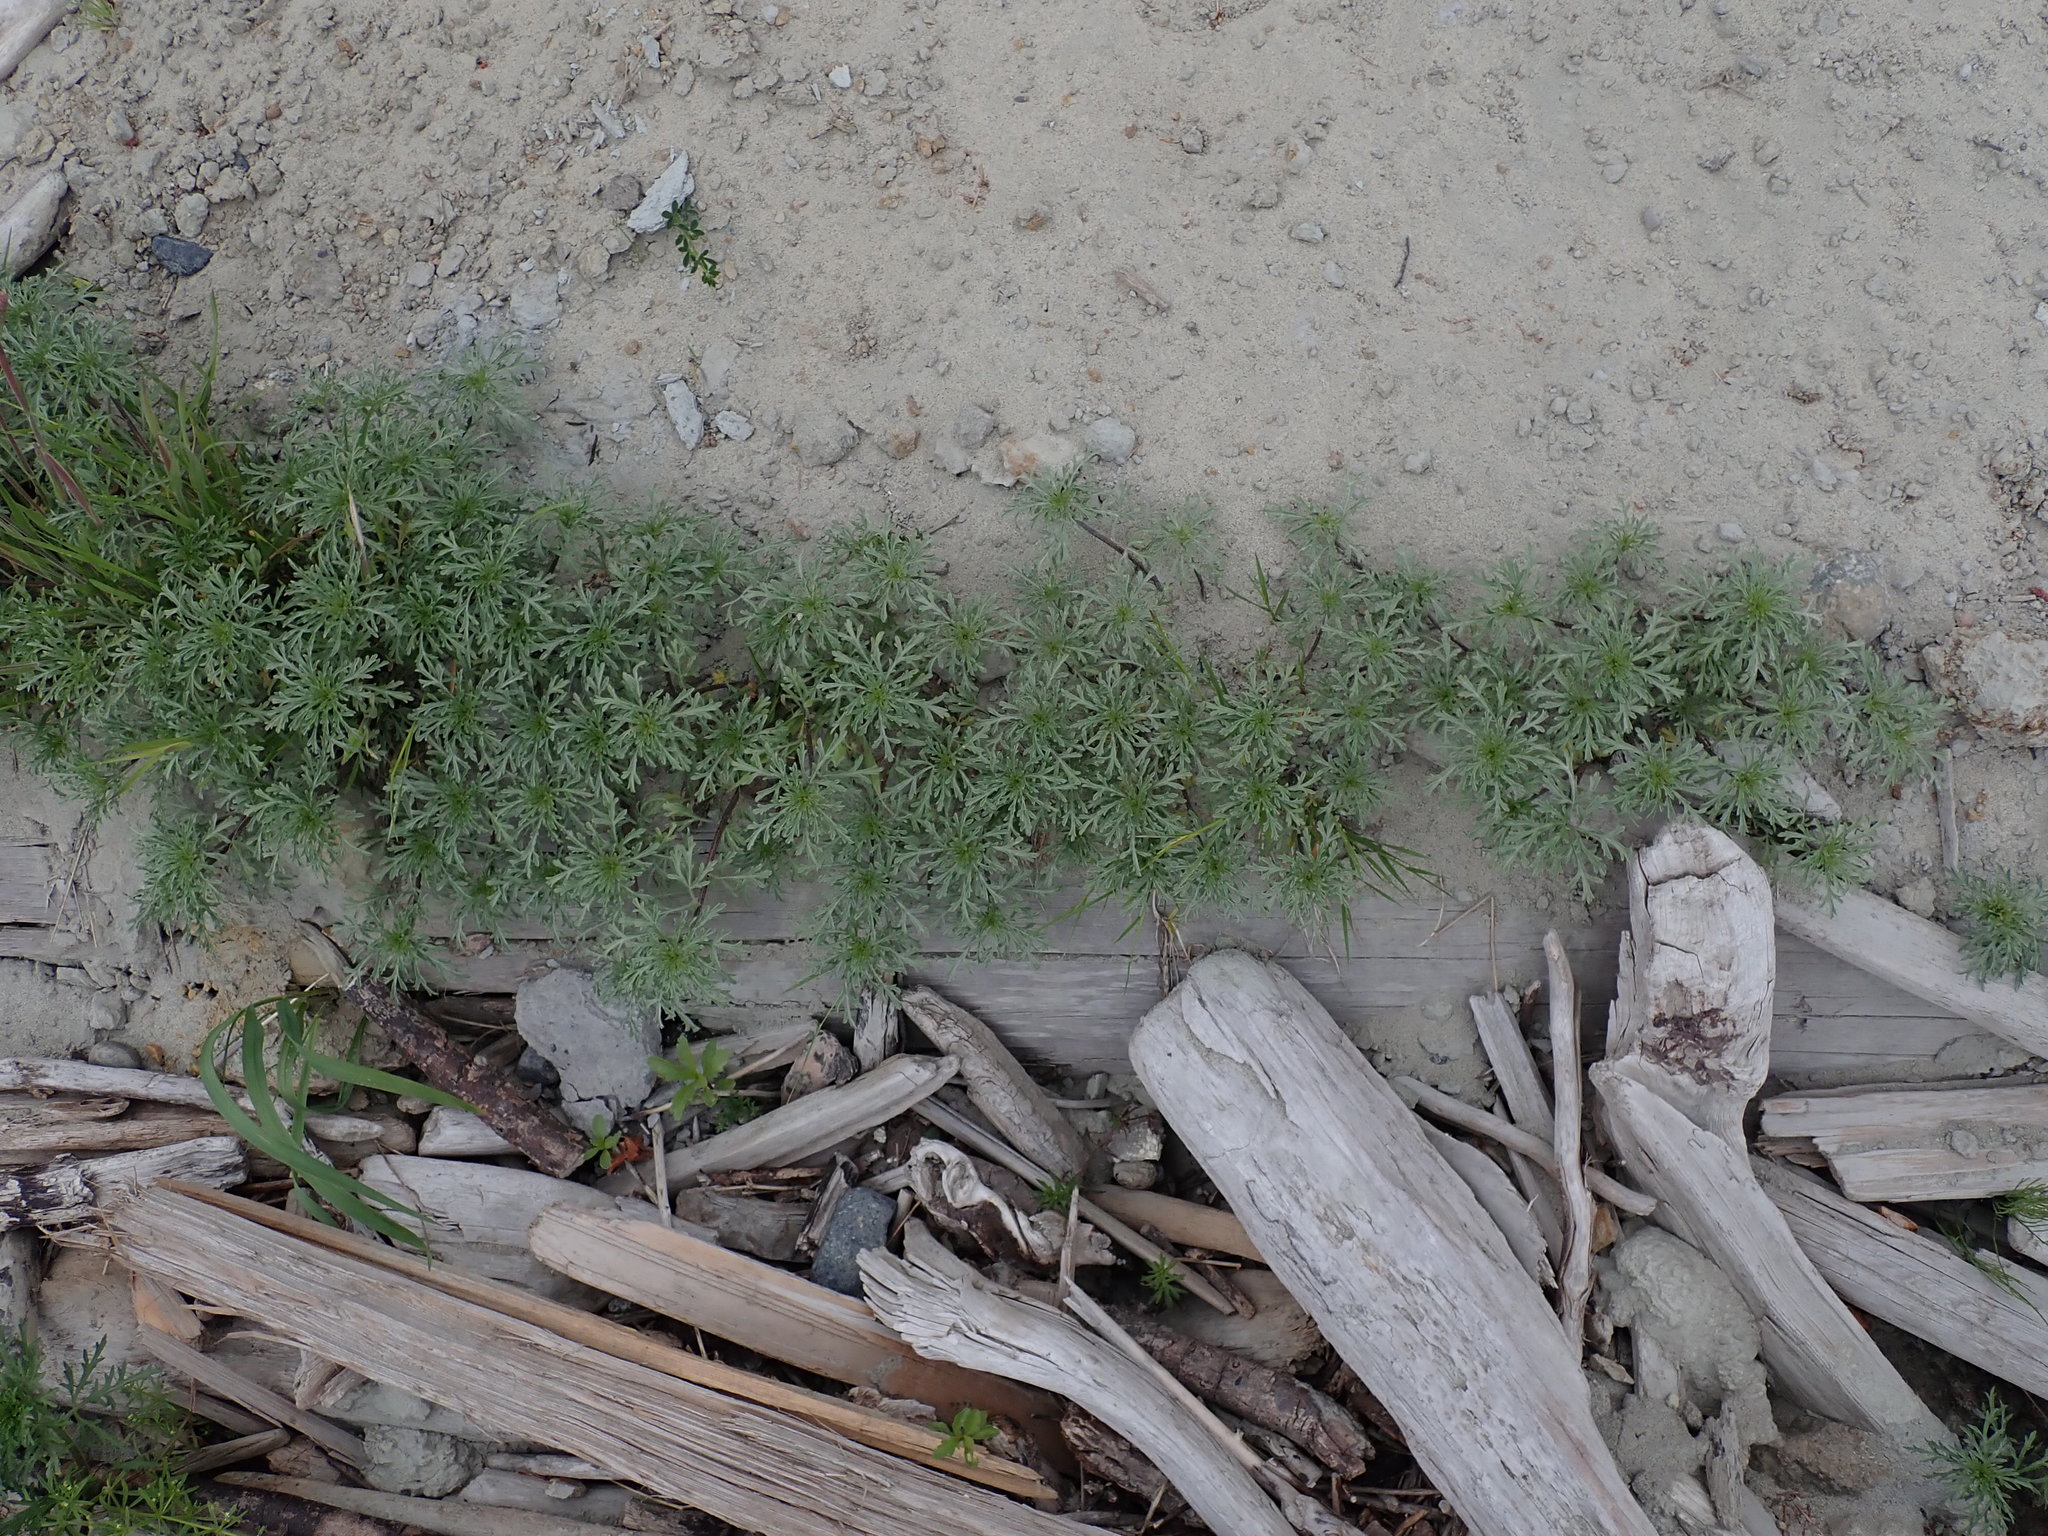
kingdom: Plantae
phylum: Tracheophyta
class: Magnoliopsida
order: Asterales
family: Asteraceae
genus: Ambrosia
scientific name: Ambrosia chamissonis
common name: Beachbur
